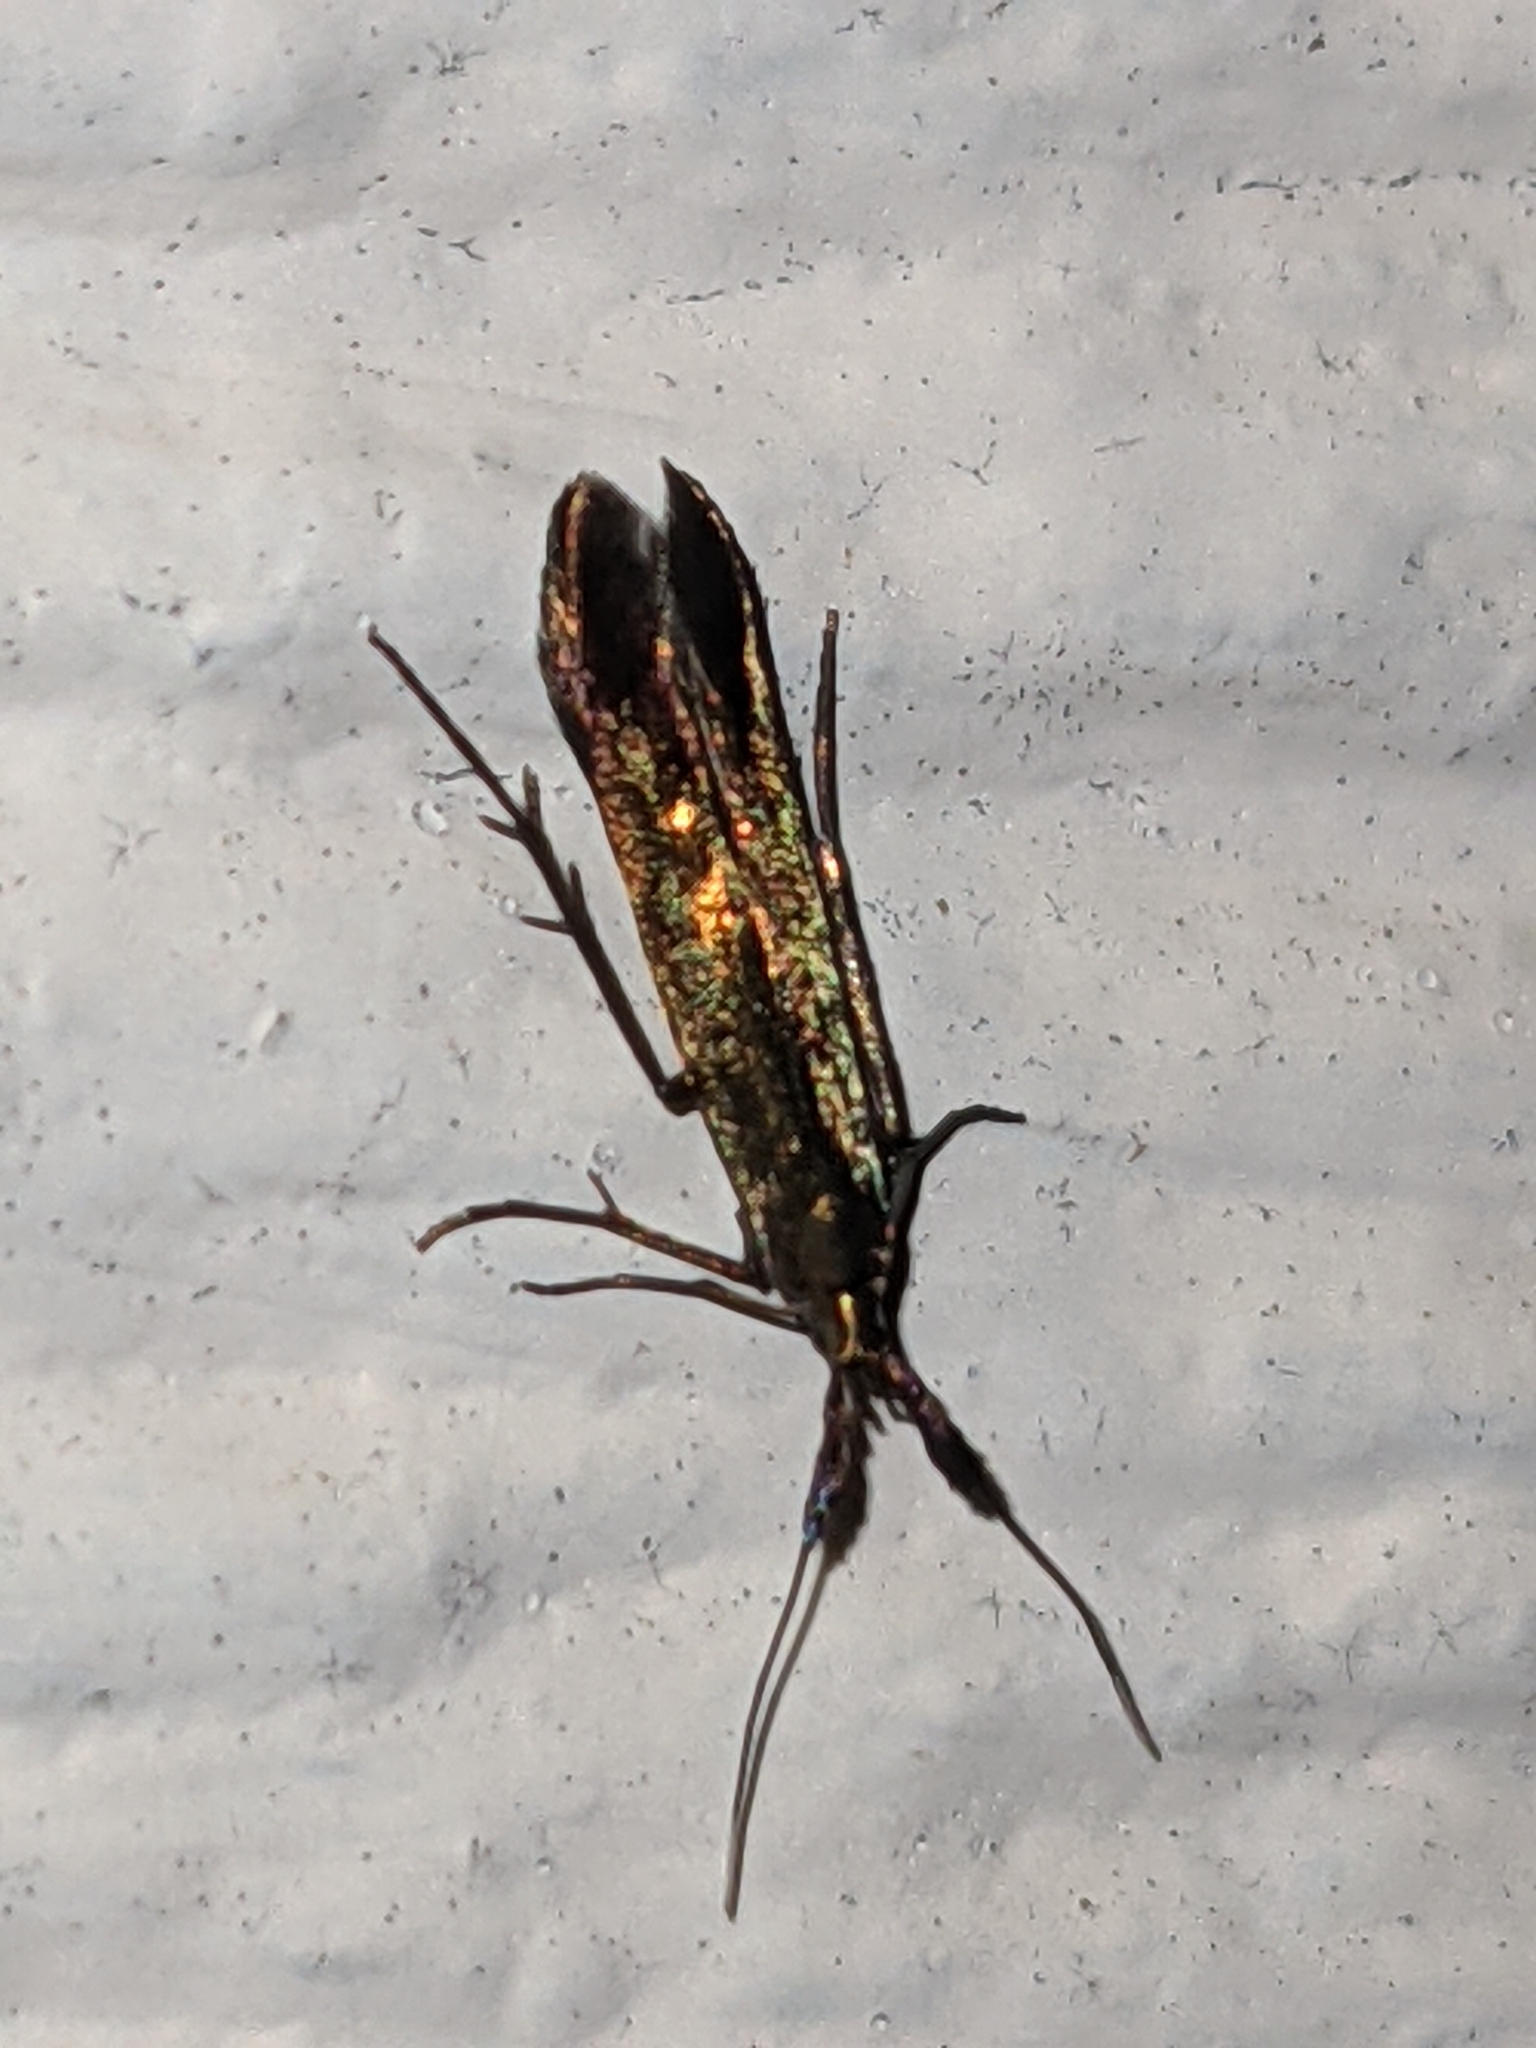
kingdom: Animalia
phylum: Arthropoda
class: Insecta
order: Lepidoptera
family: Coleophoridae
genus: Coleophora
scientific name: Coleophora deauratella
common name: Red-clover case-bearer
